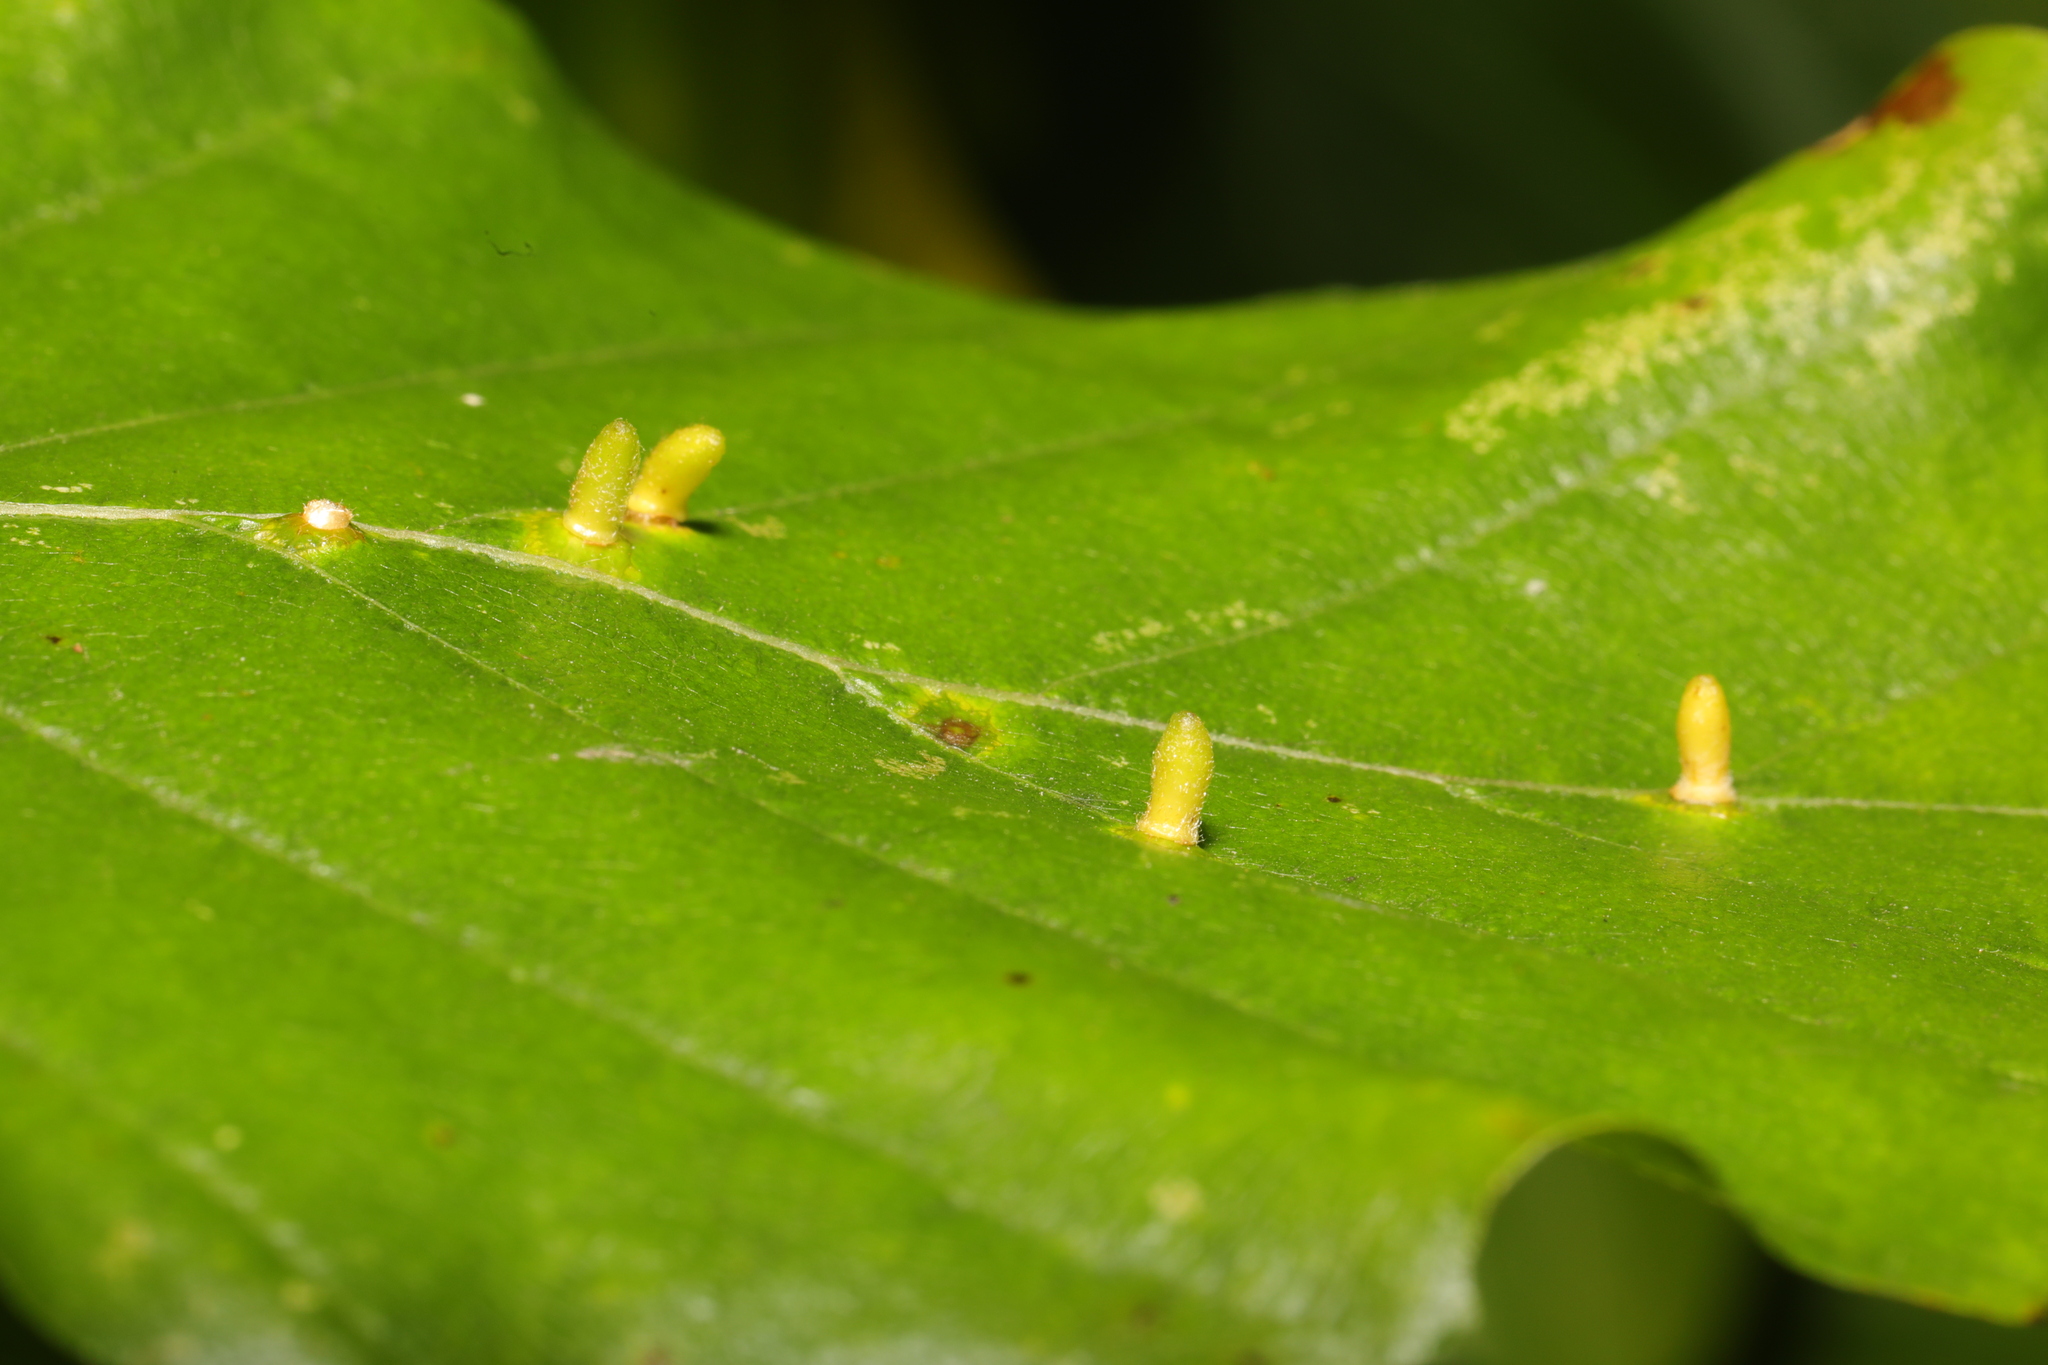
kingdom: Animalia
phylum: Arthropoda
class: Insecta
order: Diptera
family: Cecidomyiidae
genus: Hartigiola
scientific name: Hartigiola annulipes
